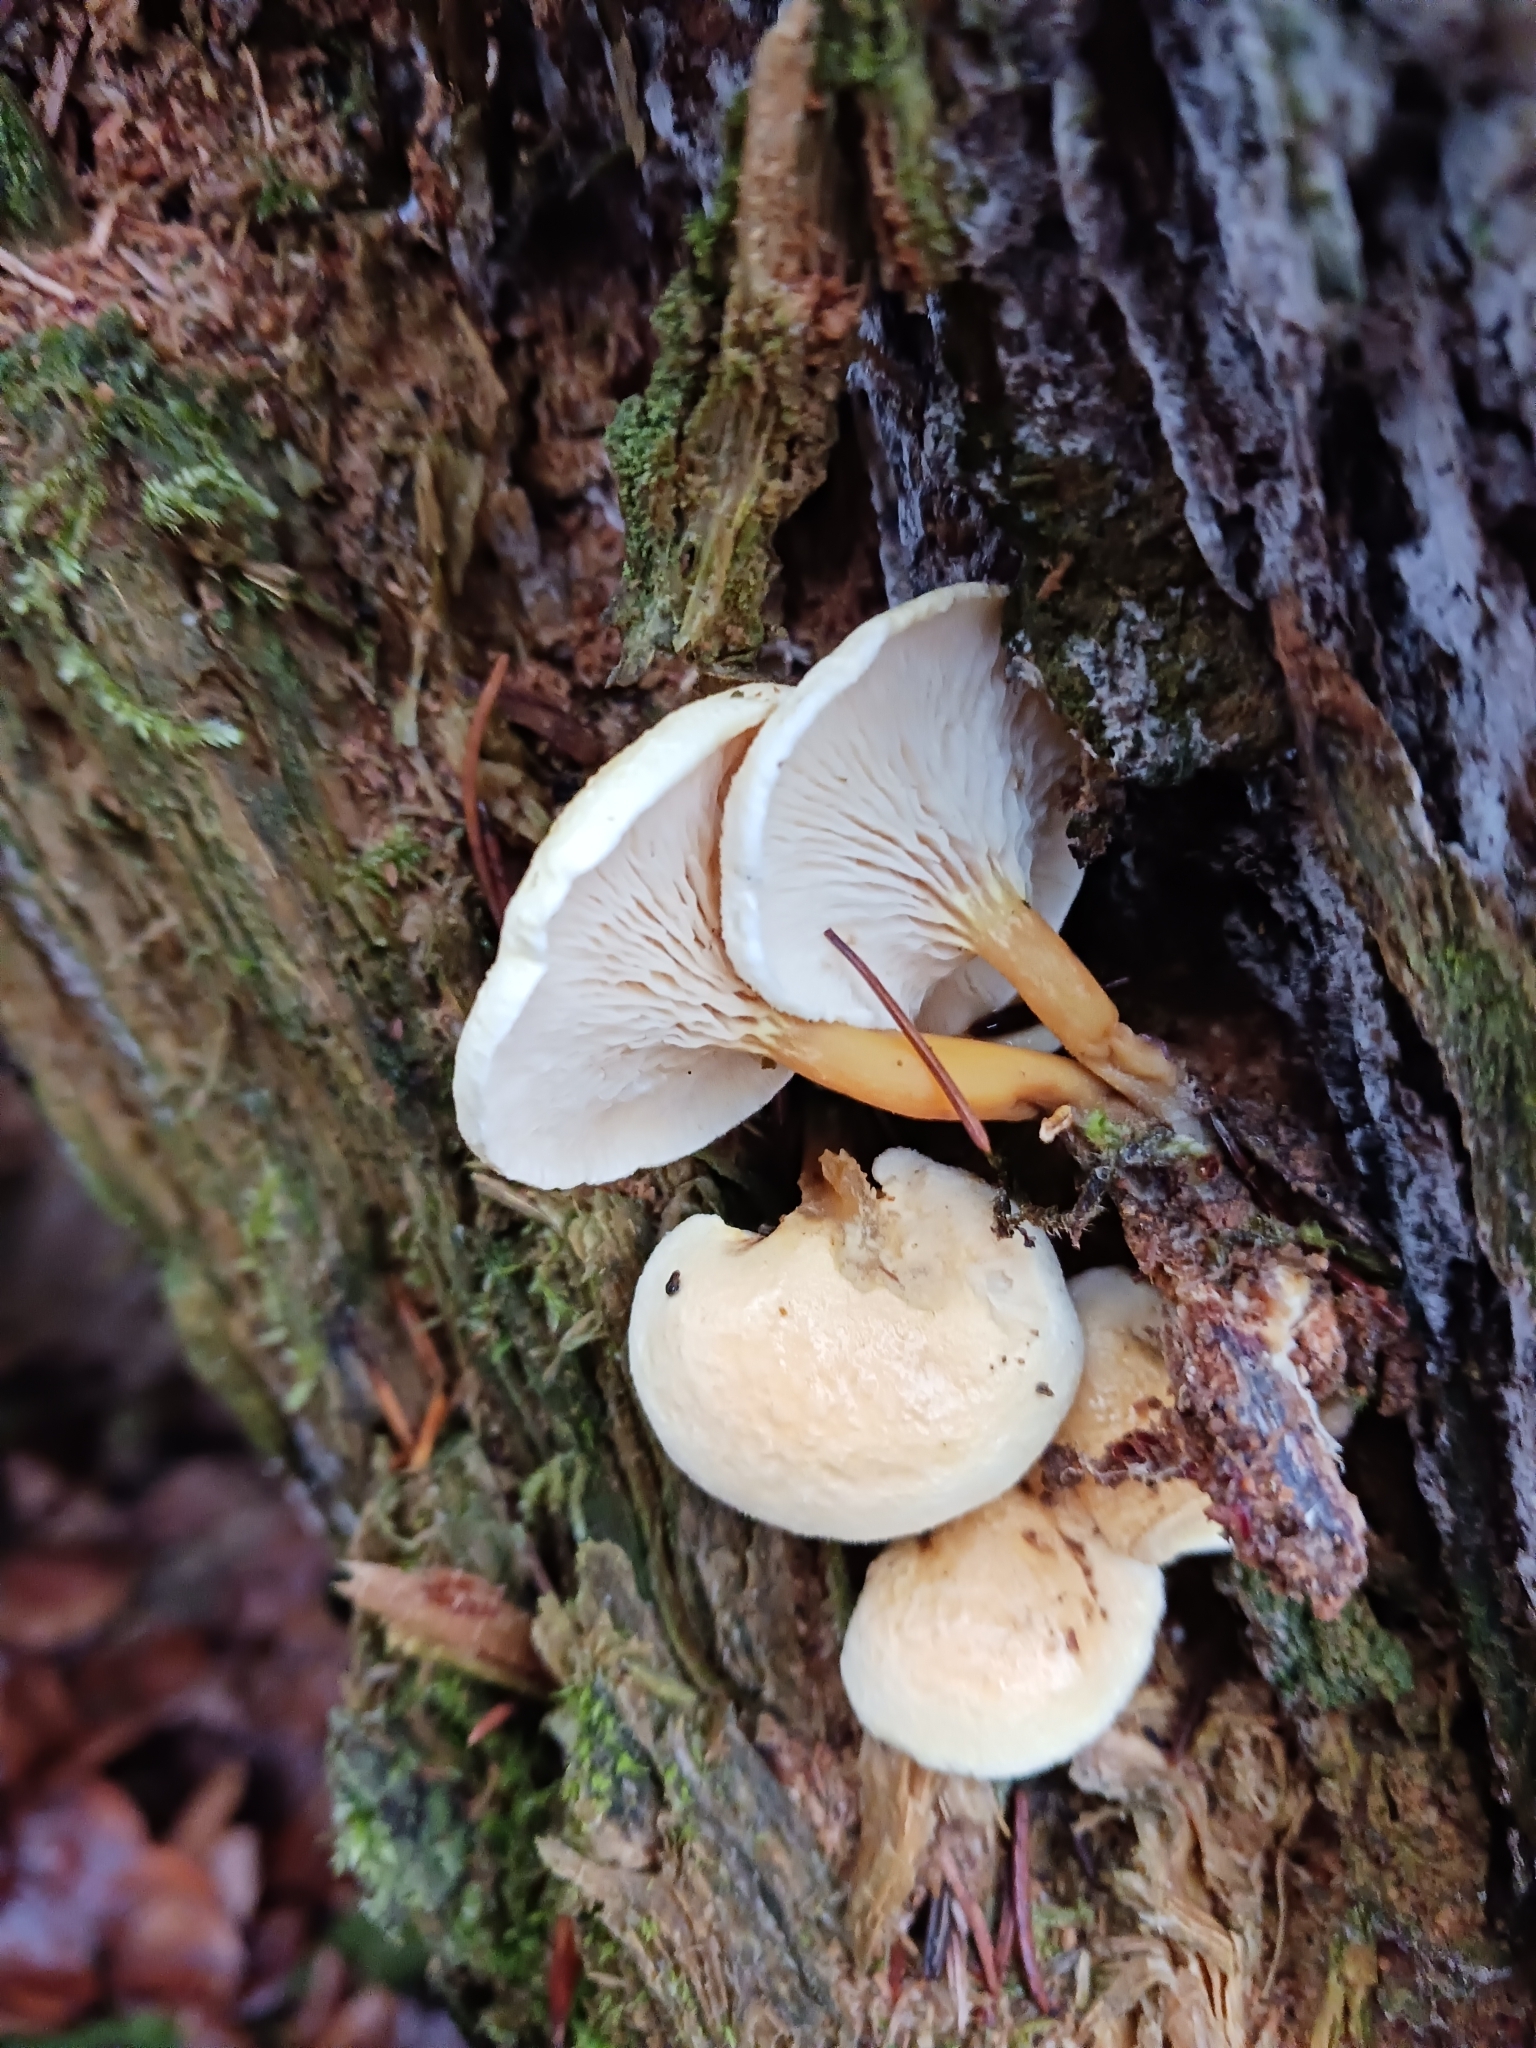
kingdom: Fungi
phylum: Basidiomycota
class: Agaricomycetes
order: Boletales
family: Hygrophoropsidaceae
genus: Hygrophoropsis
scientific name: Hygrophoropsis aurantiaca
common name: False chanterelle
